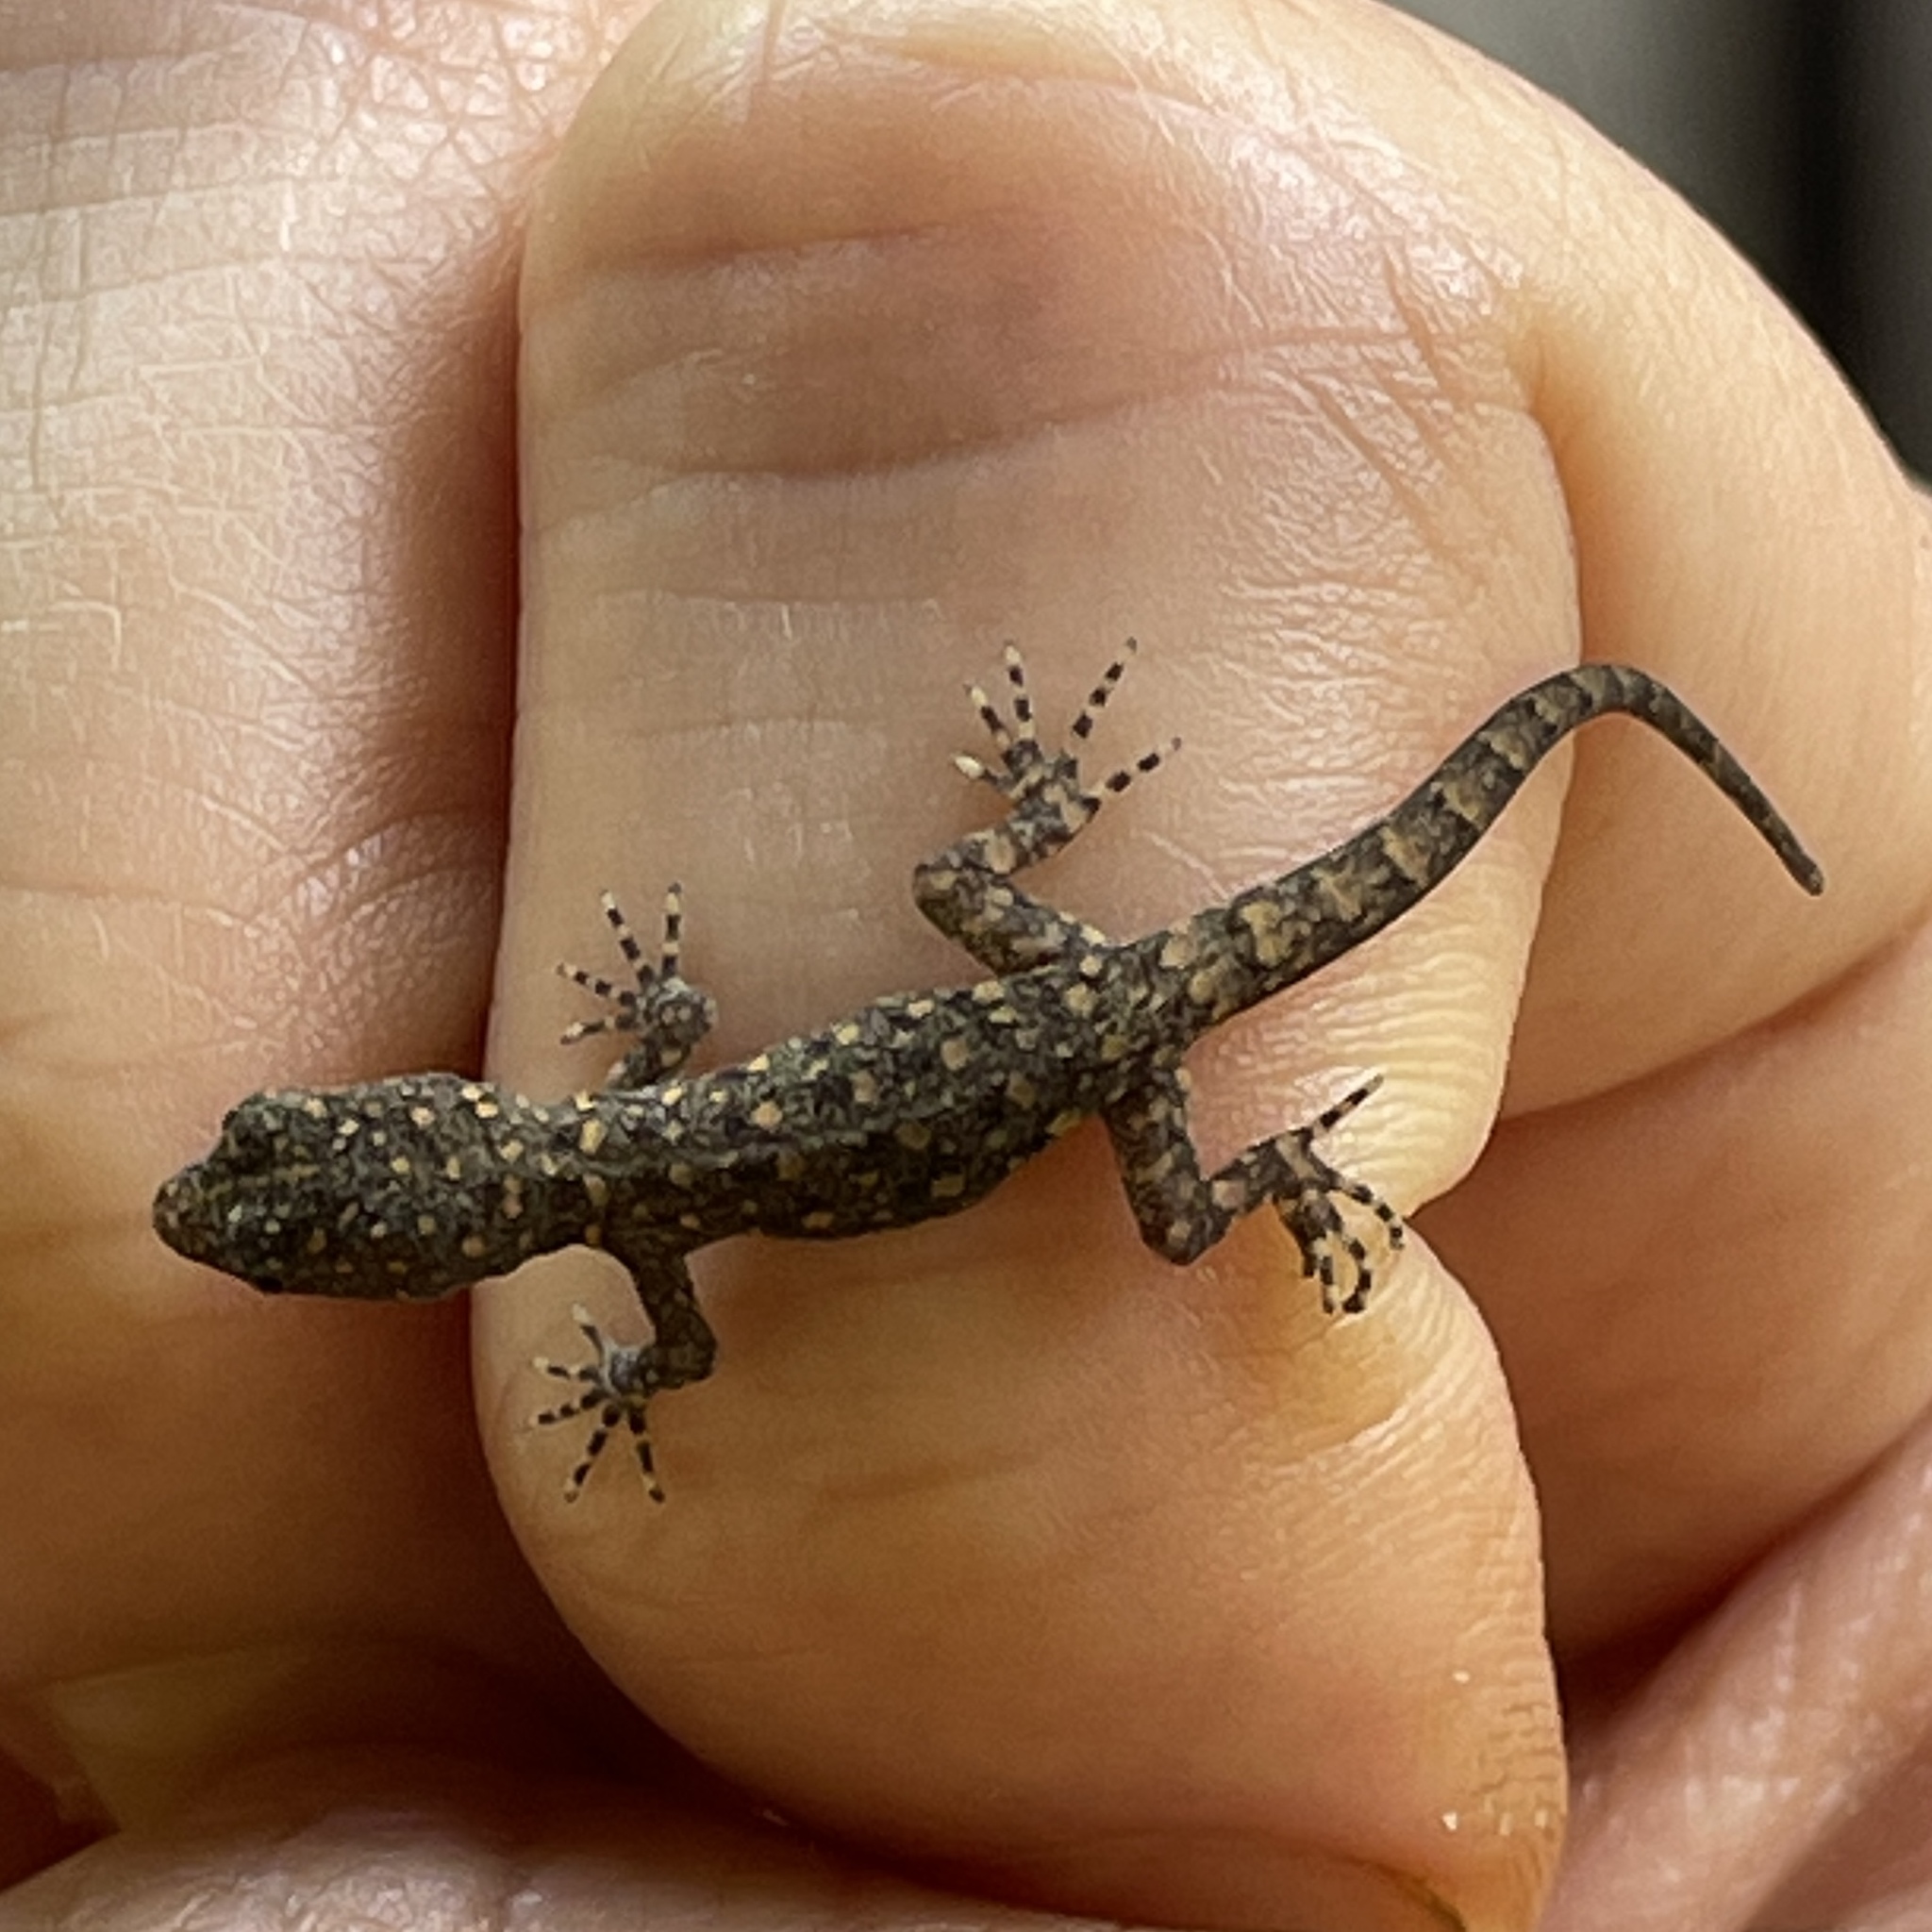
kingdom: Animalia
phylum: Chordata
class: Squamata
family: Sphaerodactylidae
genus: Gonatodes
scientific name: Gonatodes vittatus
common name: Wiegmann's striped gecko
